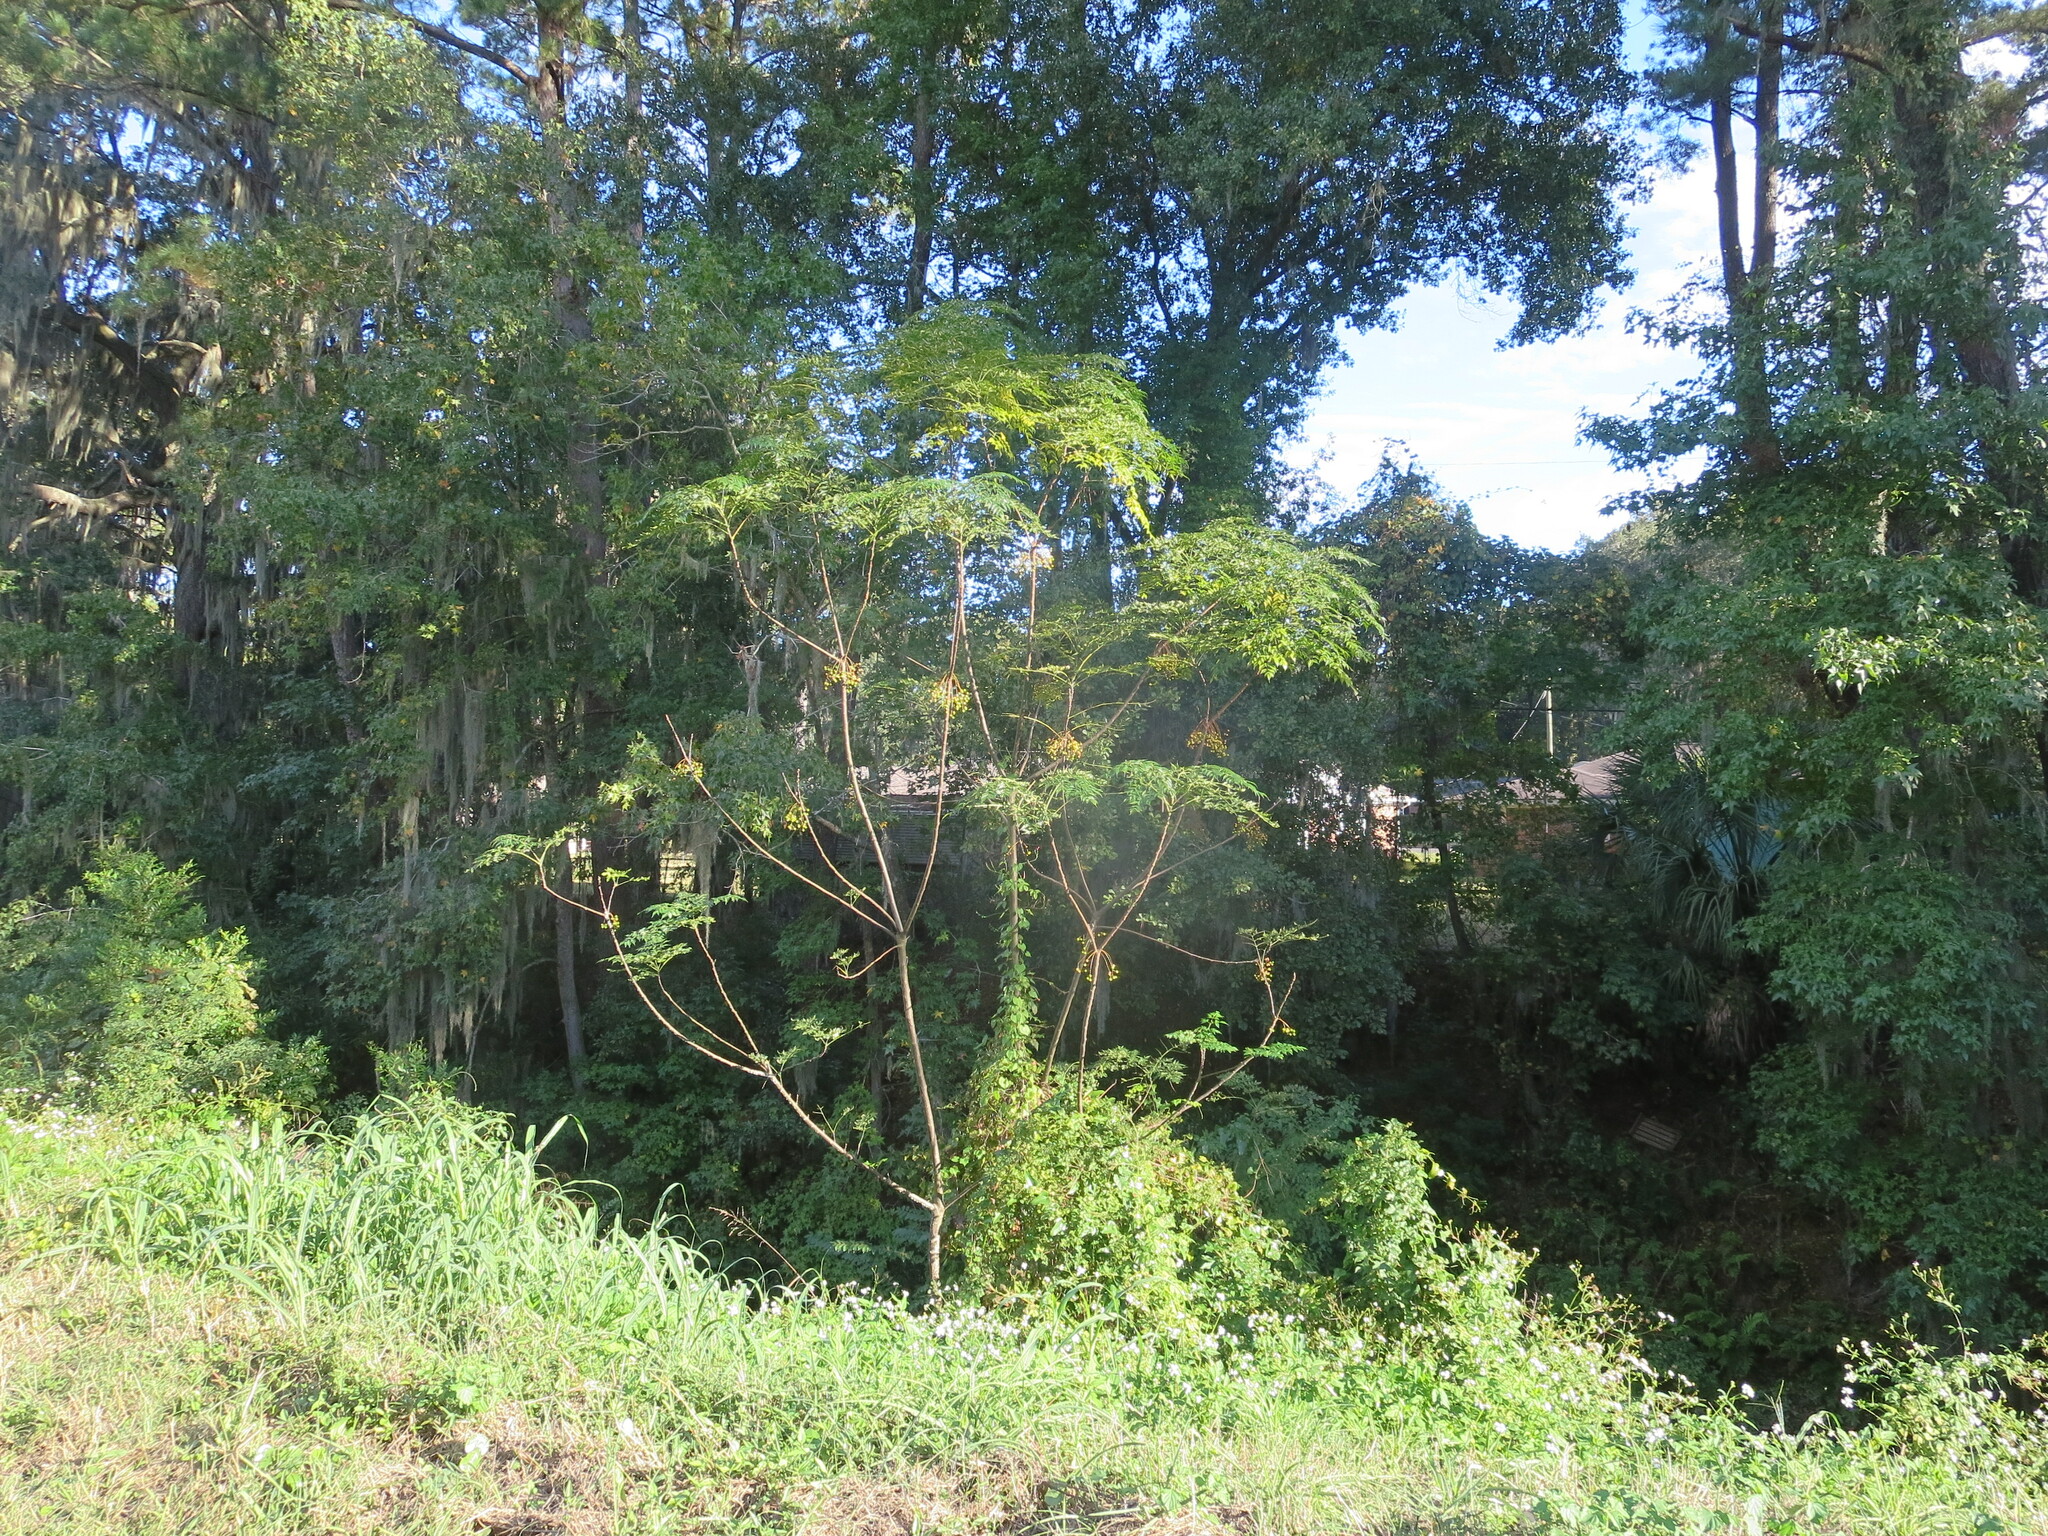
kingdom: Plantae
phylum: Tracheophyta
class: Magnoliopsida
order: Sapindales
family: Meliaceae
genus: Melia
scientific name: Melia azedarach
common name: Chinaberrytree
